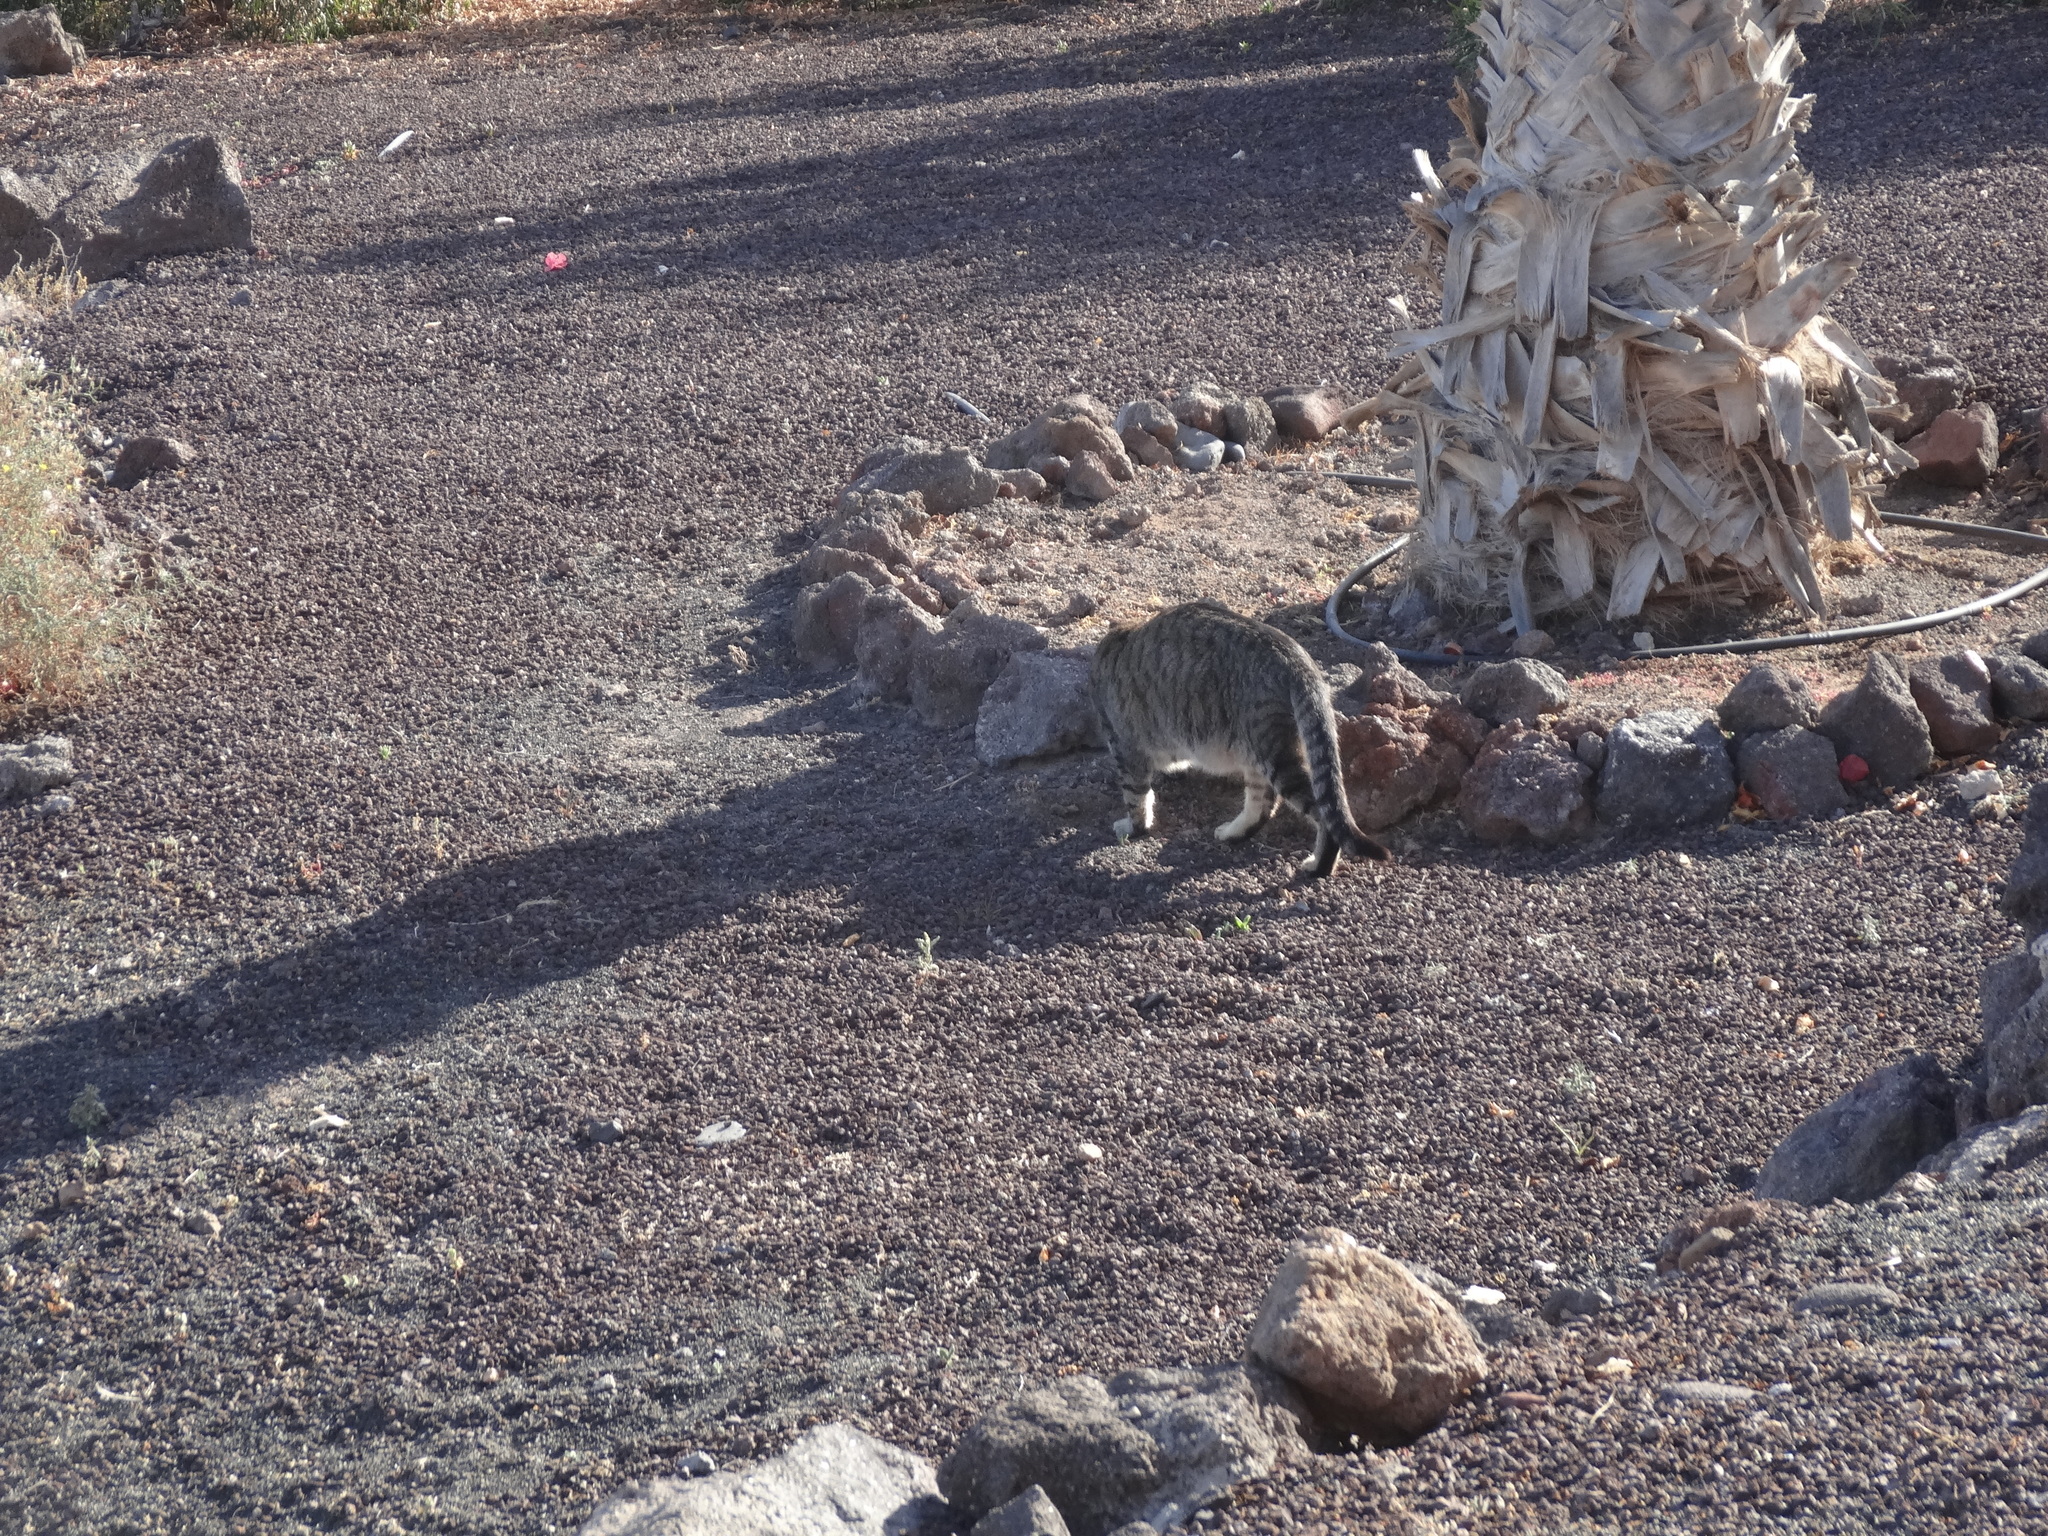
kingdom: Animalia
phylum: Chordata
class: Mammalia
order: Carnivora
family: Felidae
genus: Felis
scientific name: Felis catus
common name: Domestic cat
